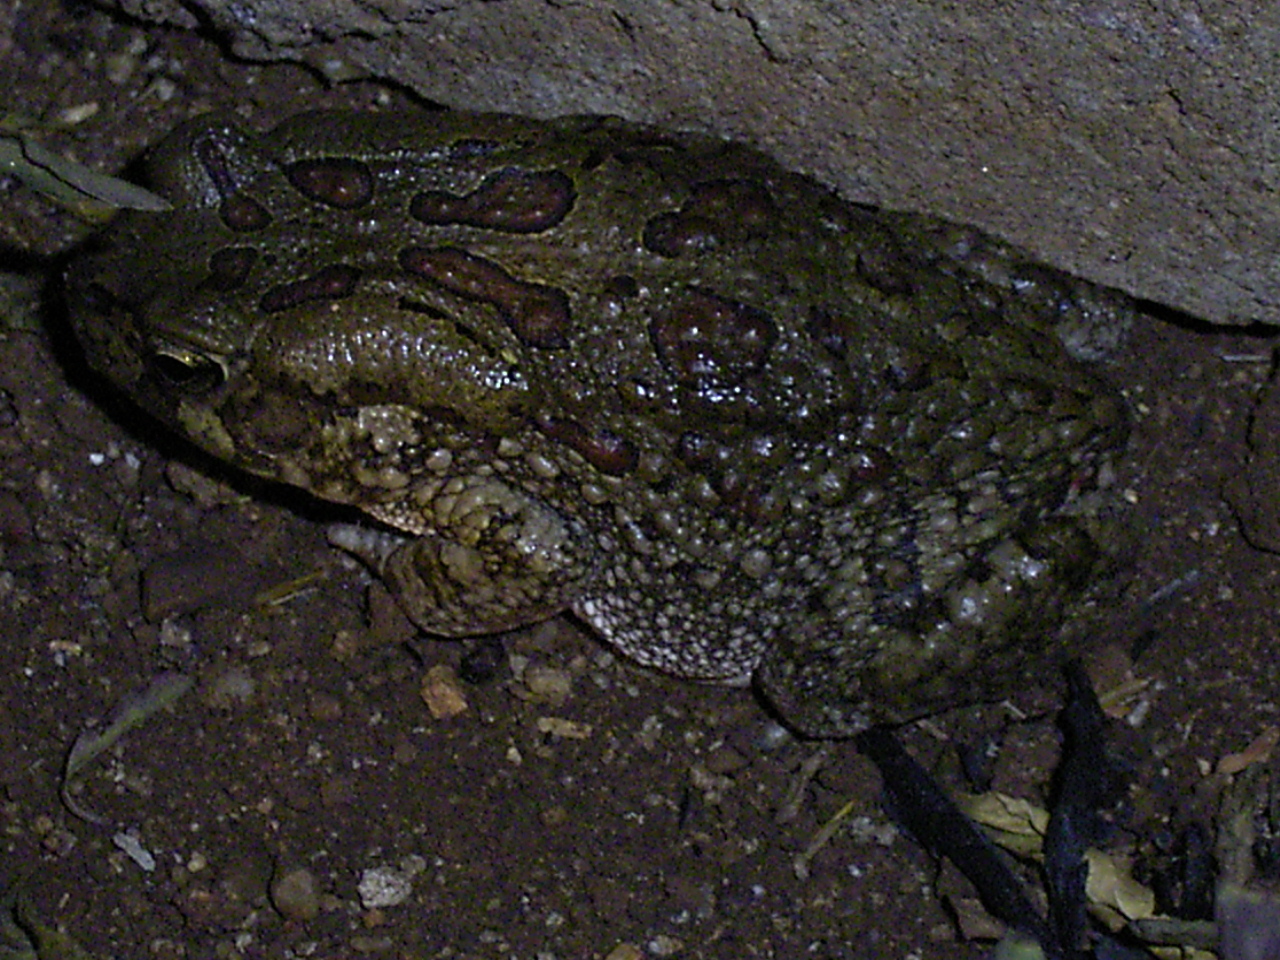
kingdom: Animalia
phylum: Chordata
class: Amphibia
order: Anura
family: Bufonidae
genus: Sclerophrys
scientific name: Sclerophrys garmani
